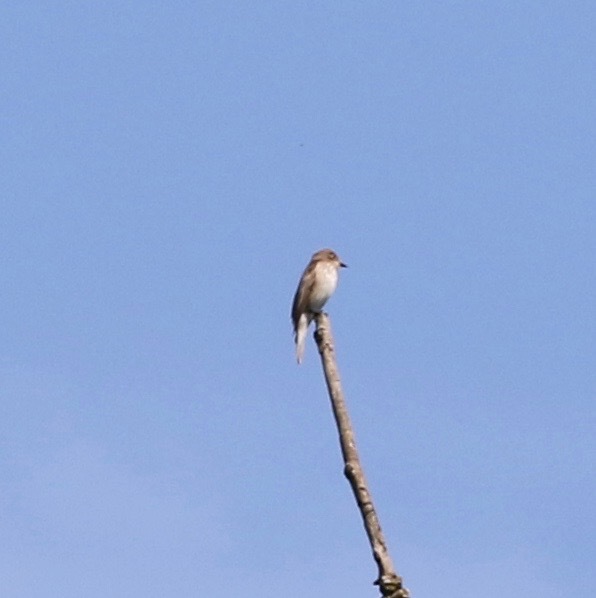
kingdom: Animalia
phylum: Chordata
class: Aves
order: Passeriformes
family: Muscicapidae
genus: Muscicapa
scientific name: Muscicapa striata
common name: Spotted flycatcher
